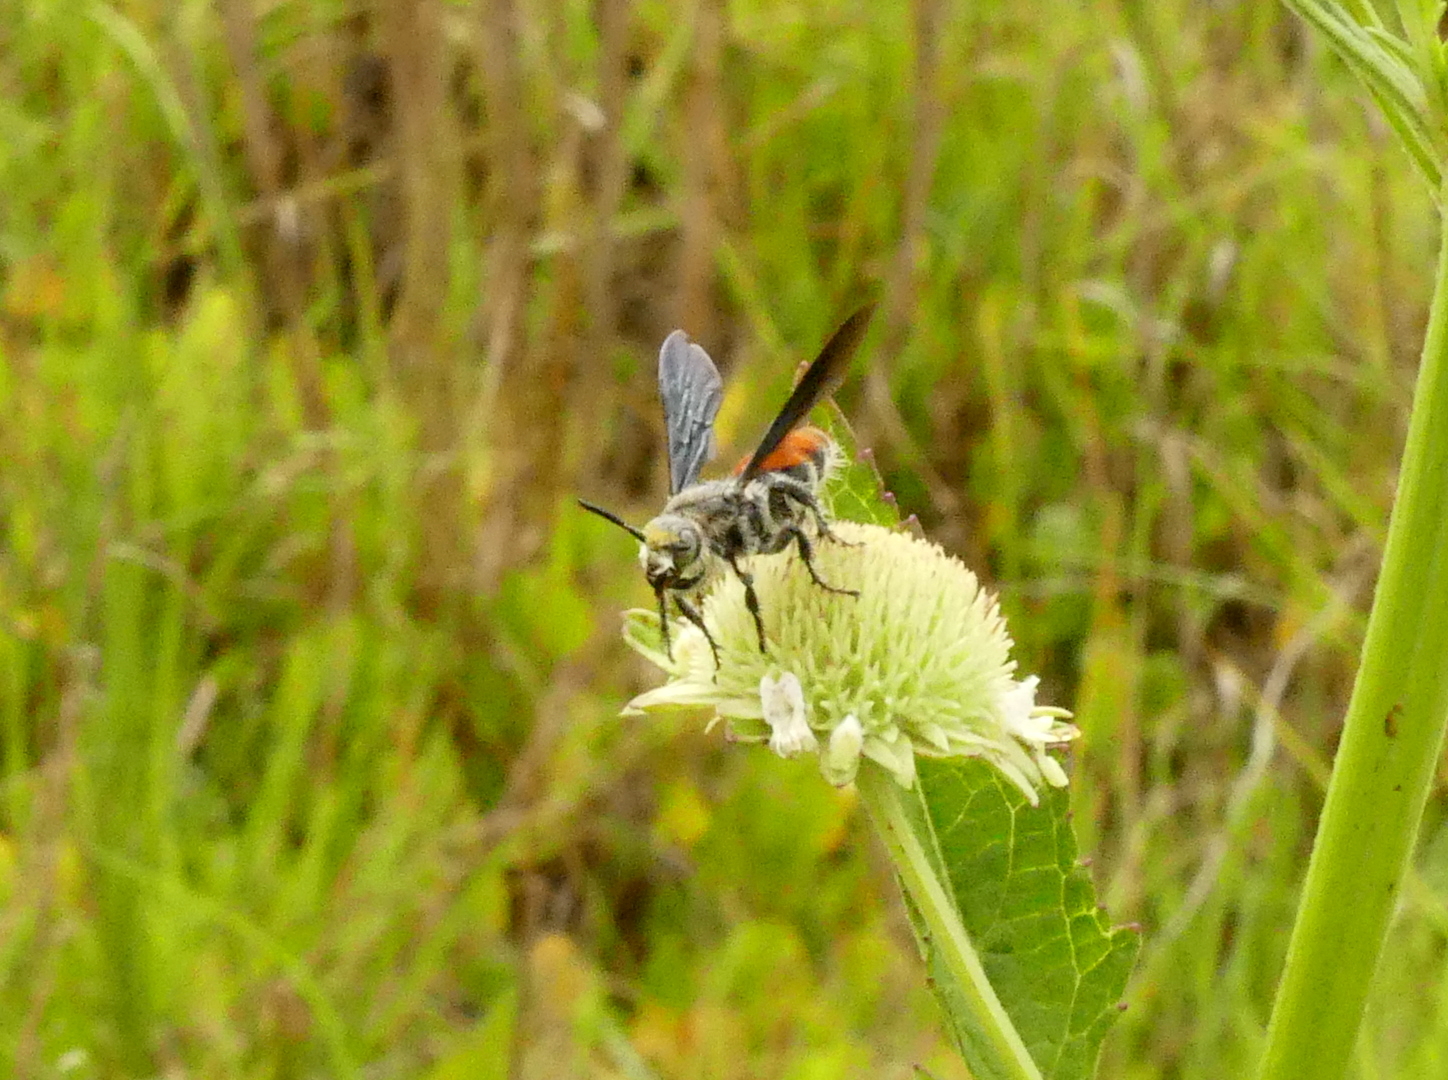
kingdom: Animalia
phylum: Arthropoda
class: Insecta
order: Hymenoptera
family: Scoliidae
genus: Dielis
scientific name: Dielis dorsata
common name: Scoliid wasp
